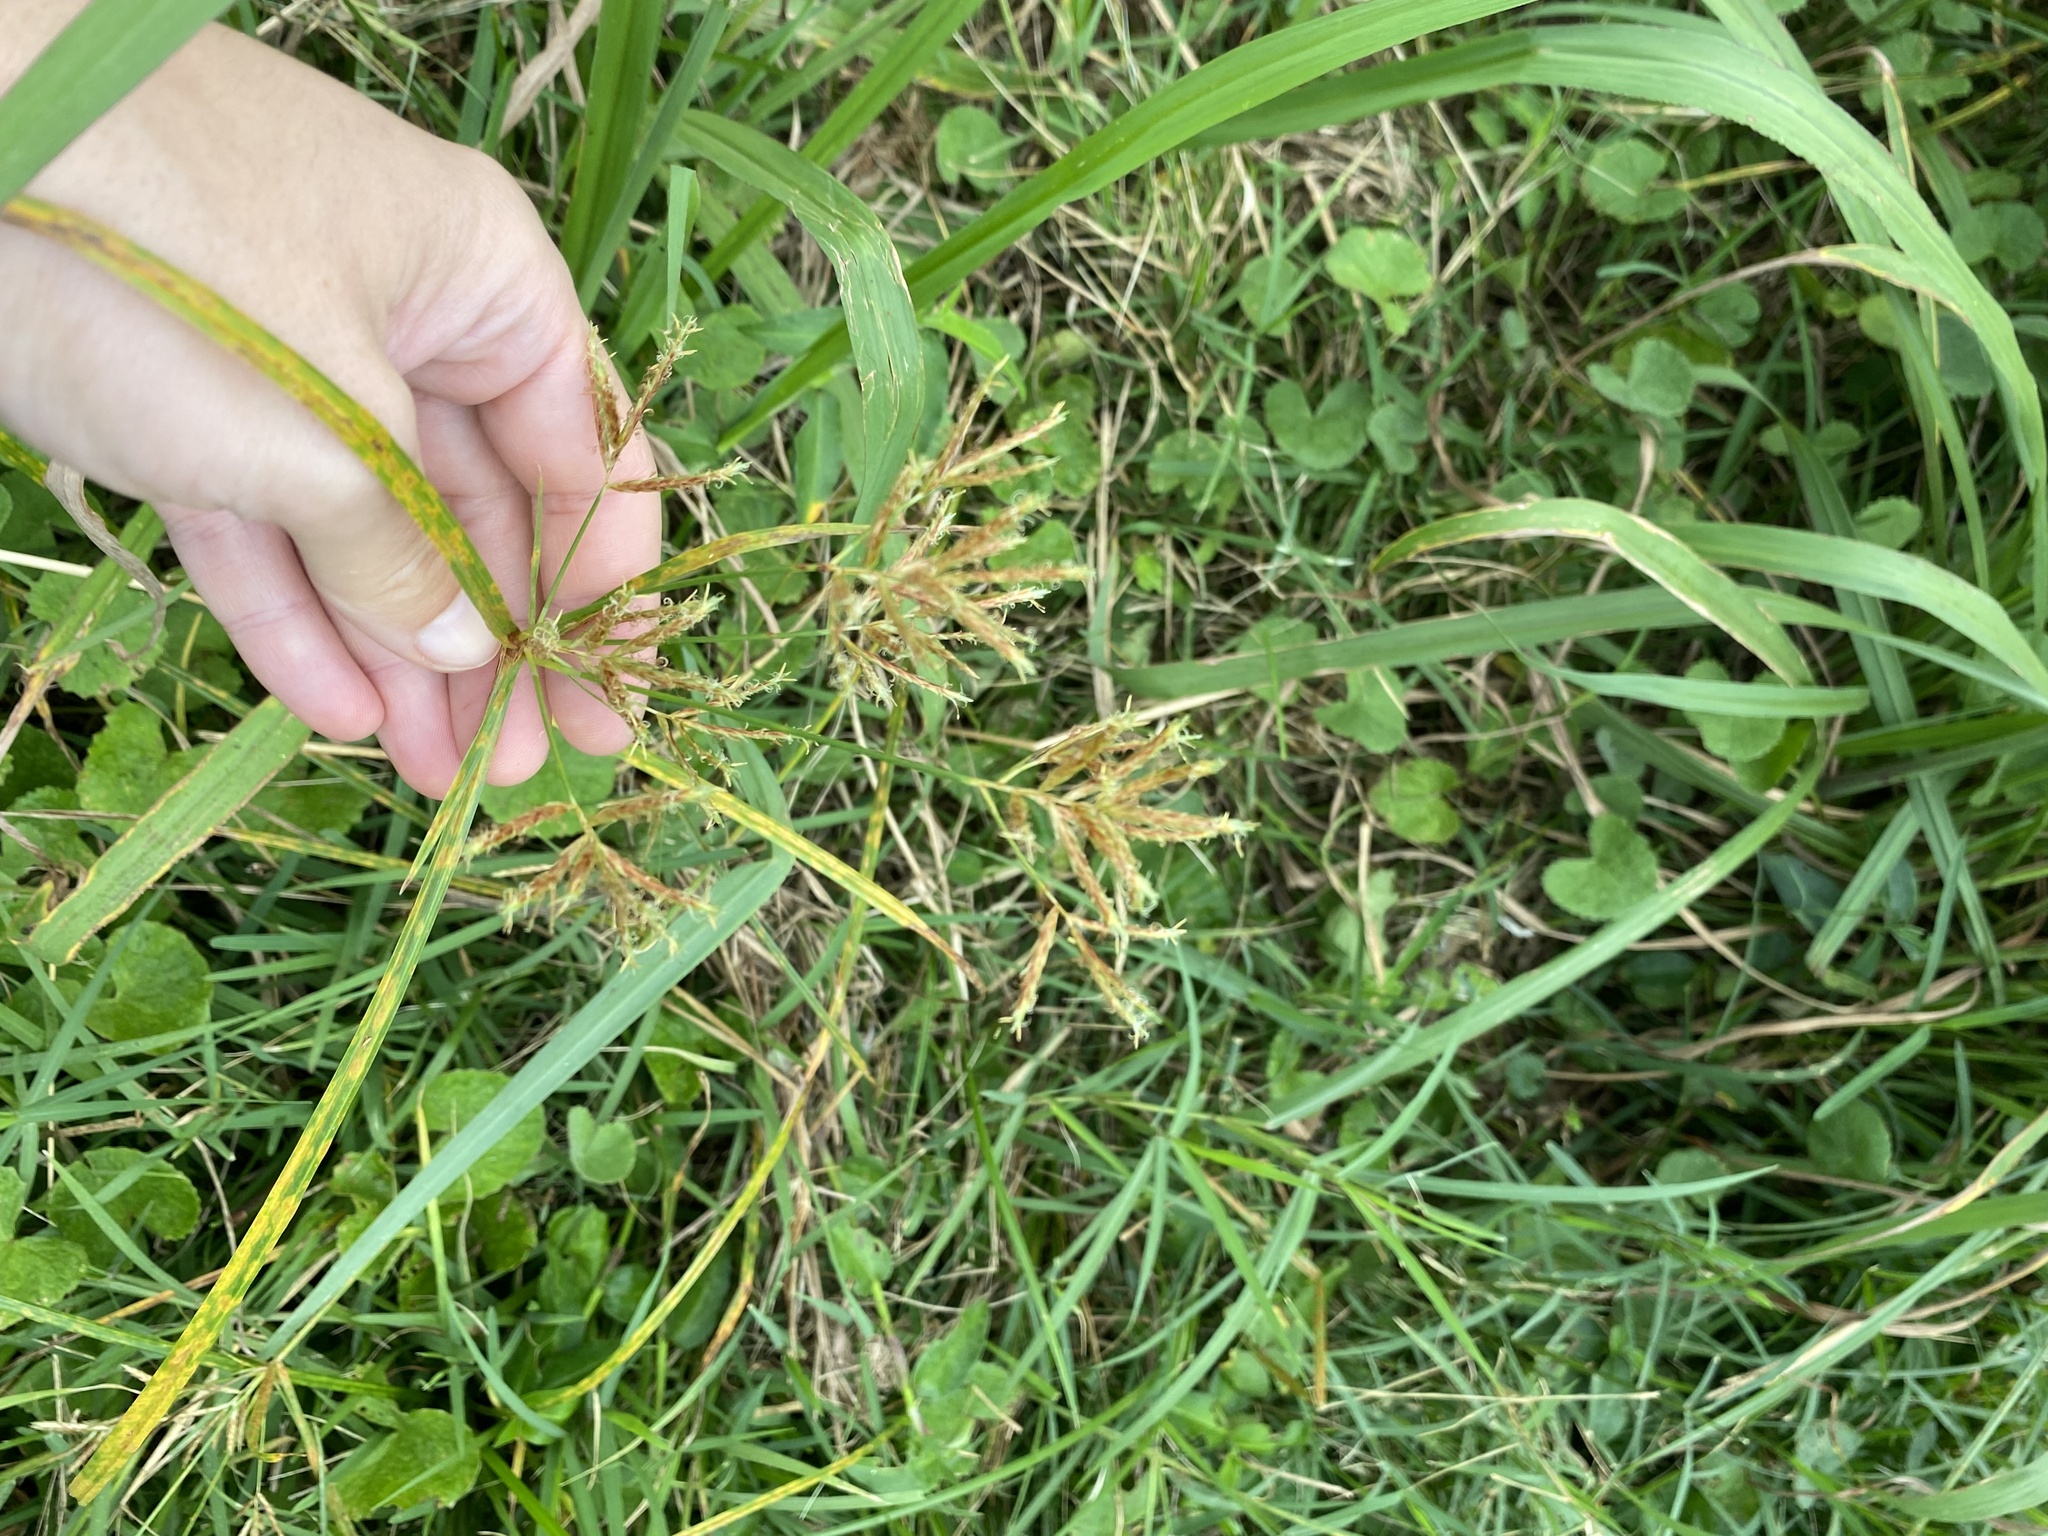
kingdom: Plantae
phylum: Tracheophyta
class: Liliopsida
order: Poales
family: Cyperaceae
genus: Cyperus
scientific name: Cyperus esculentus
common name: Yellow nutsedge
